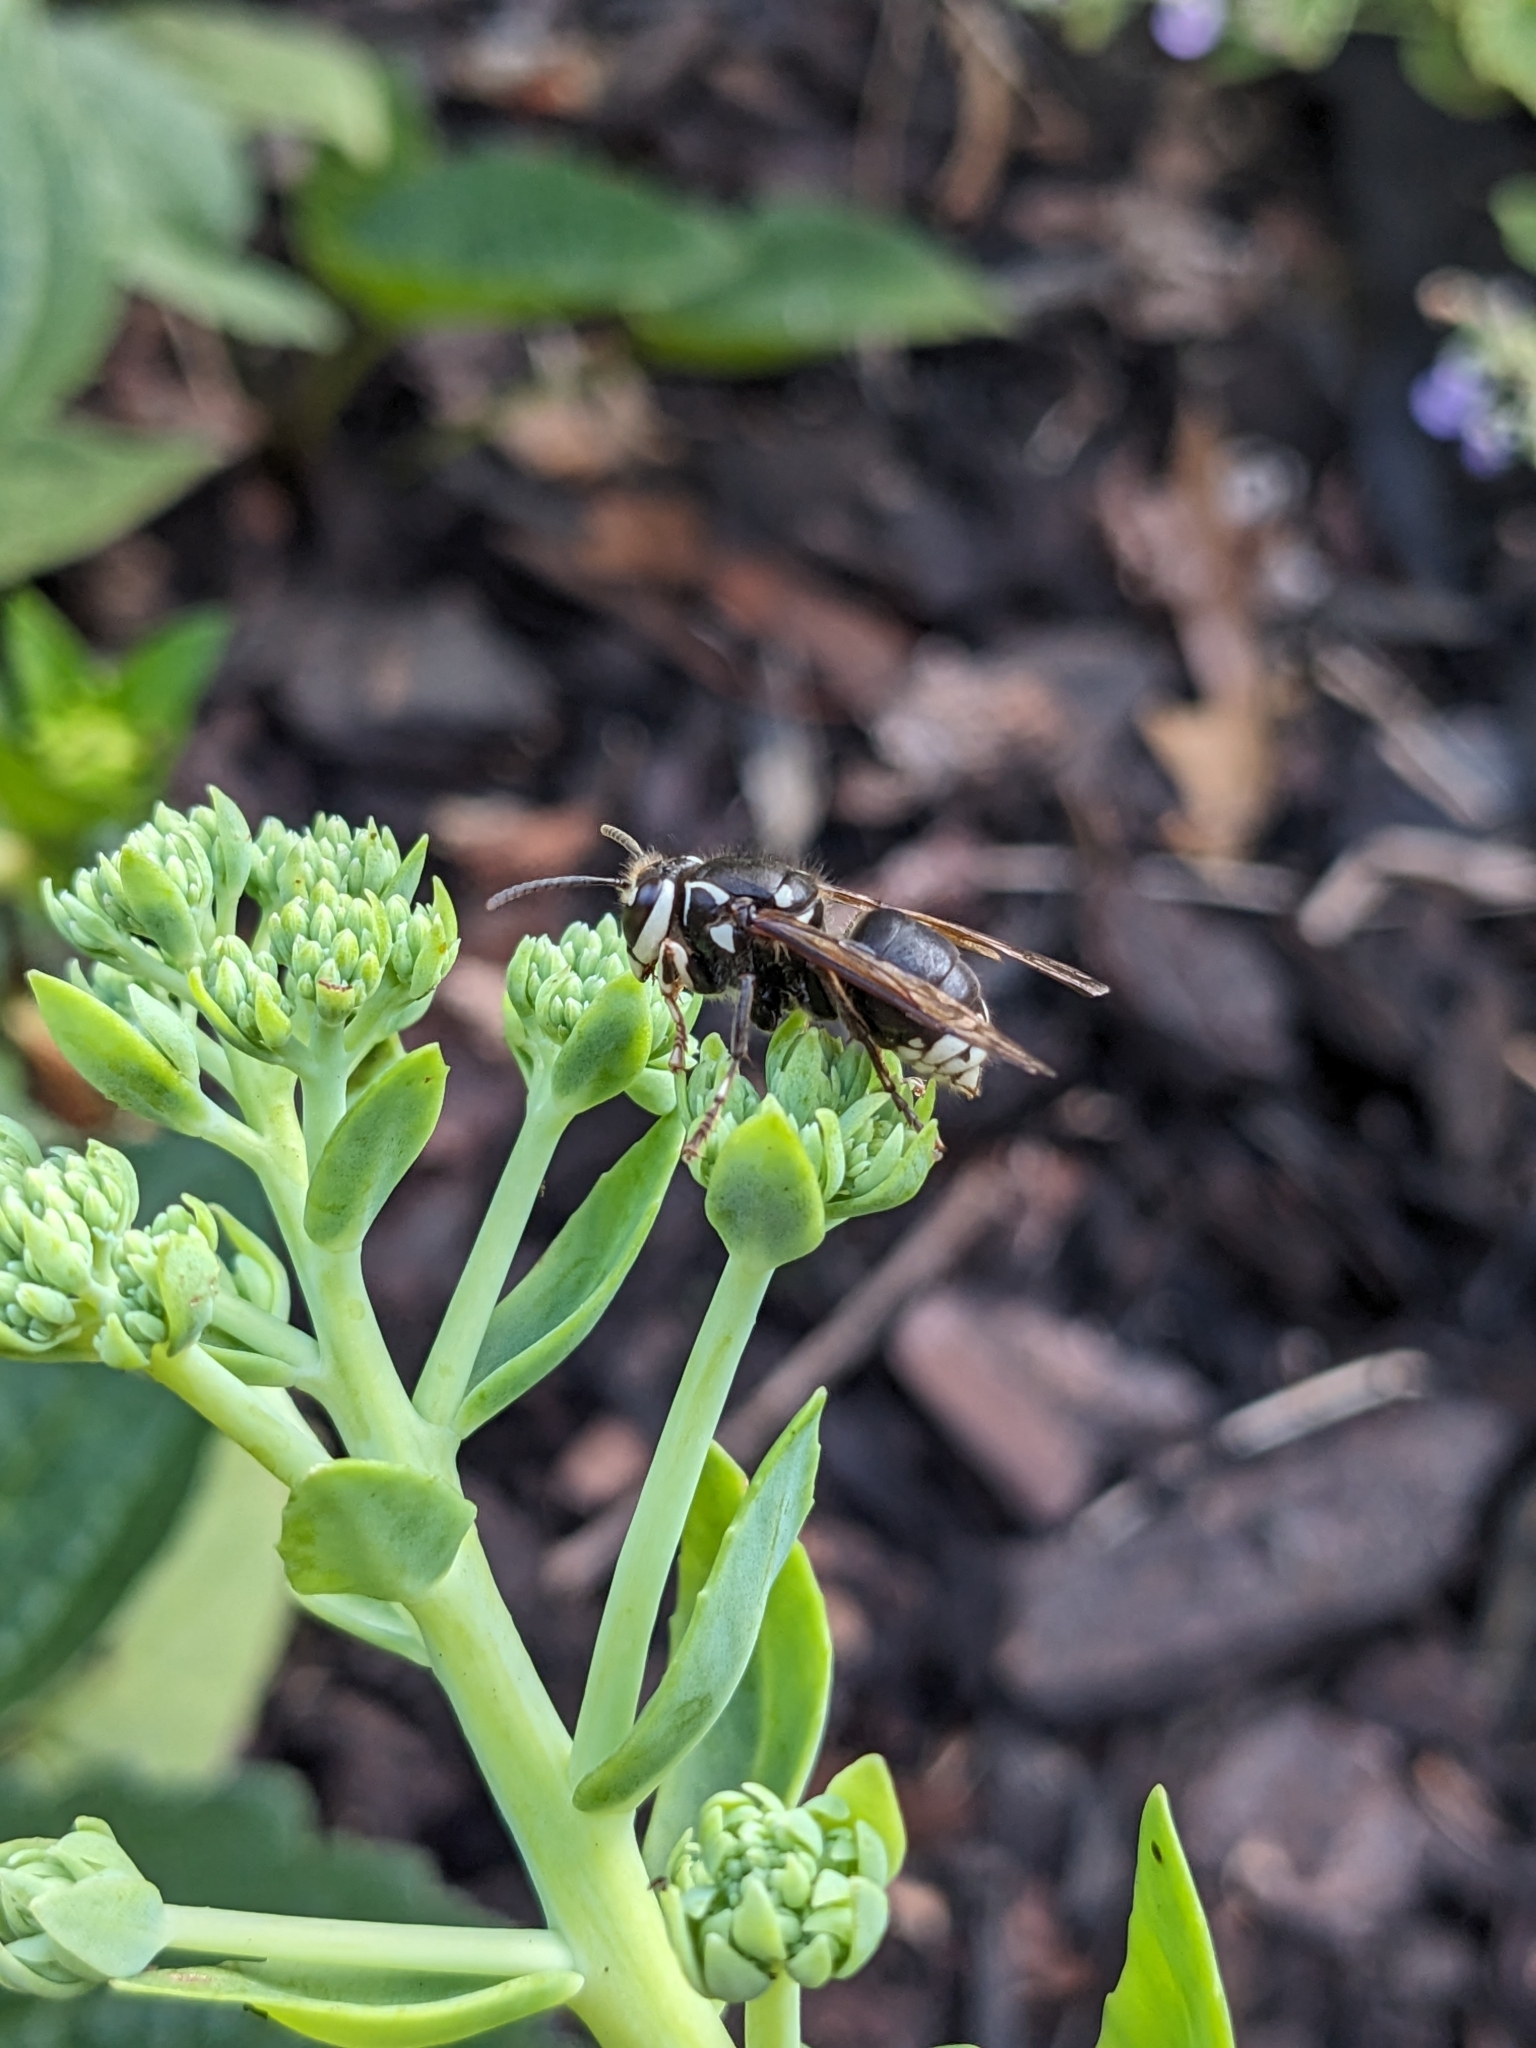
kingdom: Animalia
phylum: Arthropoda
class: Insecta
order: Hymenoptera
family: Vespidae
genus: Dolichovespula
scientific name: Dolichovespula maculata
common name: Bald-faced hornet
